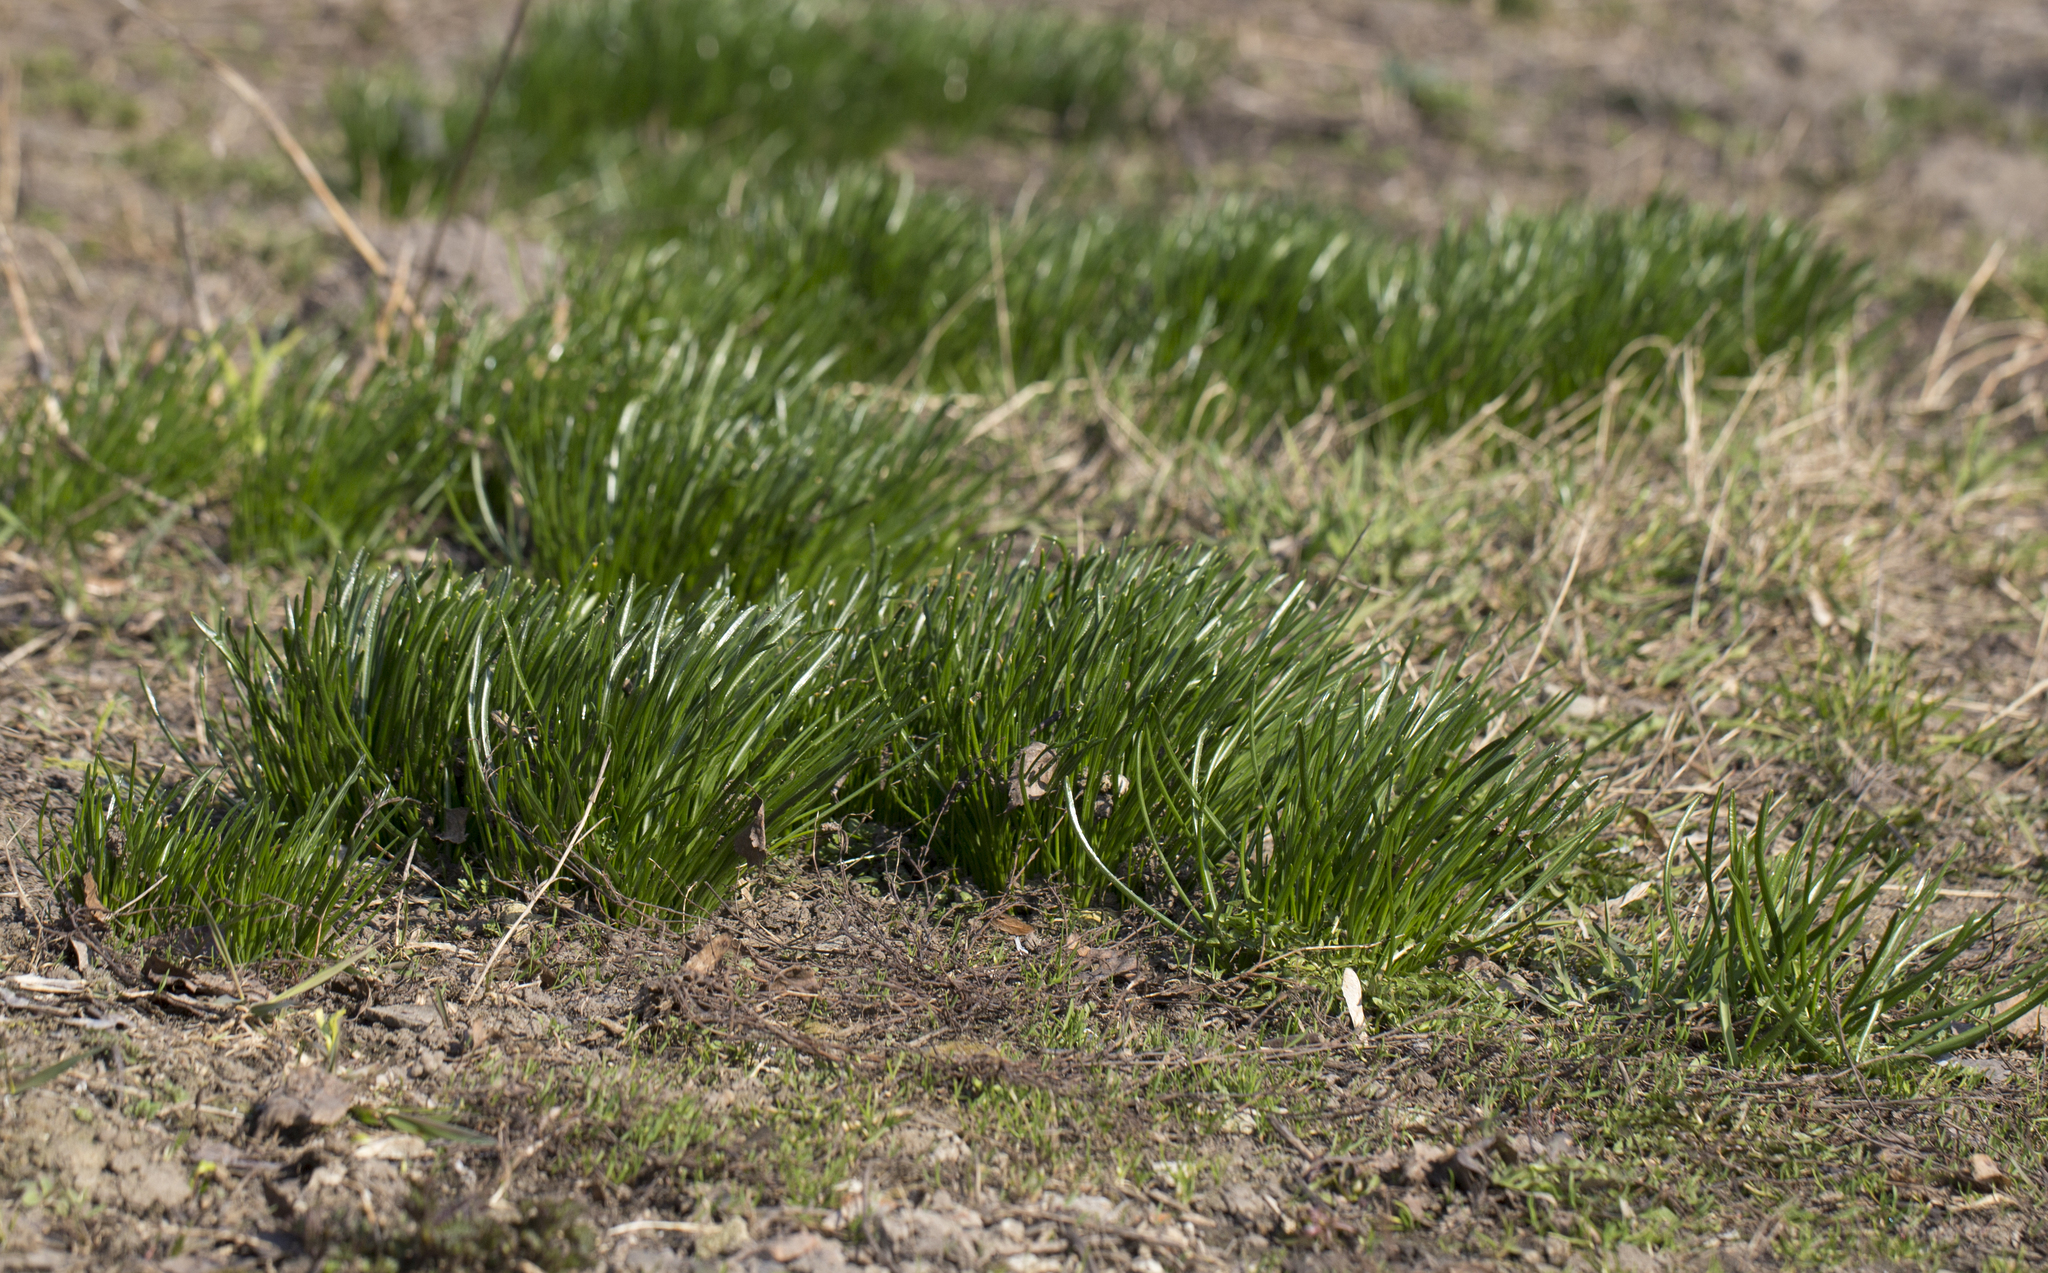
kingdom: Plantae
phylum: Tracheophyta
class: Liliopsida
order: Liliales
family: Liliaceae
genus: Gagea
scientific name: Gagea minima
